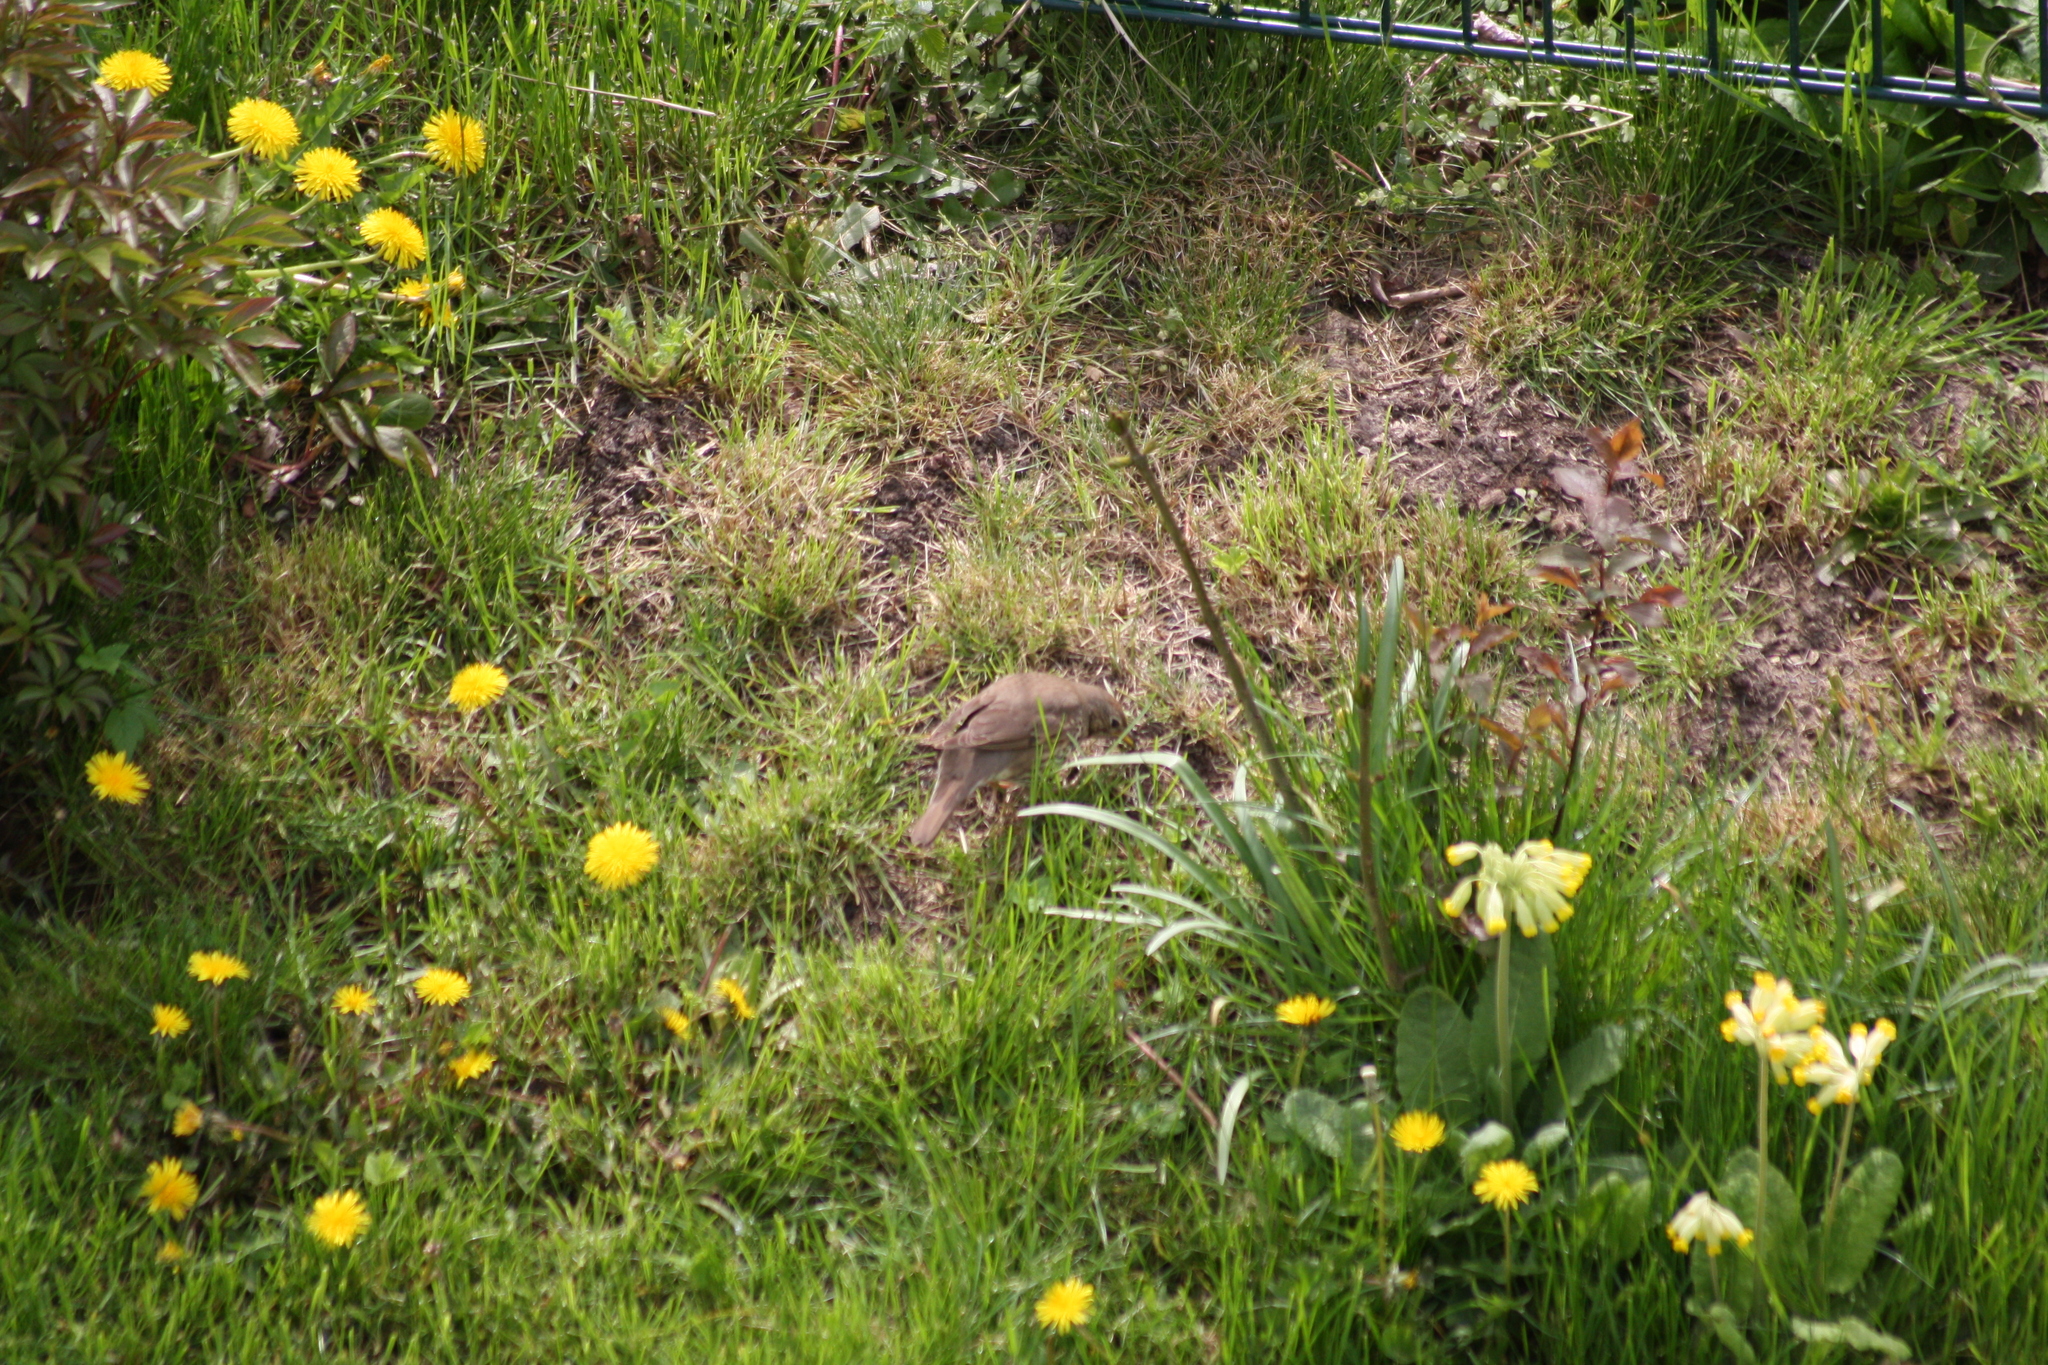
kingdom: Animalia
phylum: Chordata
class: Aves
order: Passeriformes
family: Turdidae
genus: Turdus
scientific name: Turdus philomelos
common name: Song thrush
